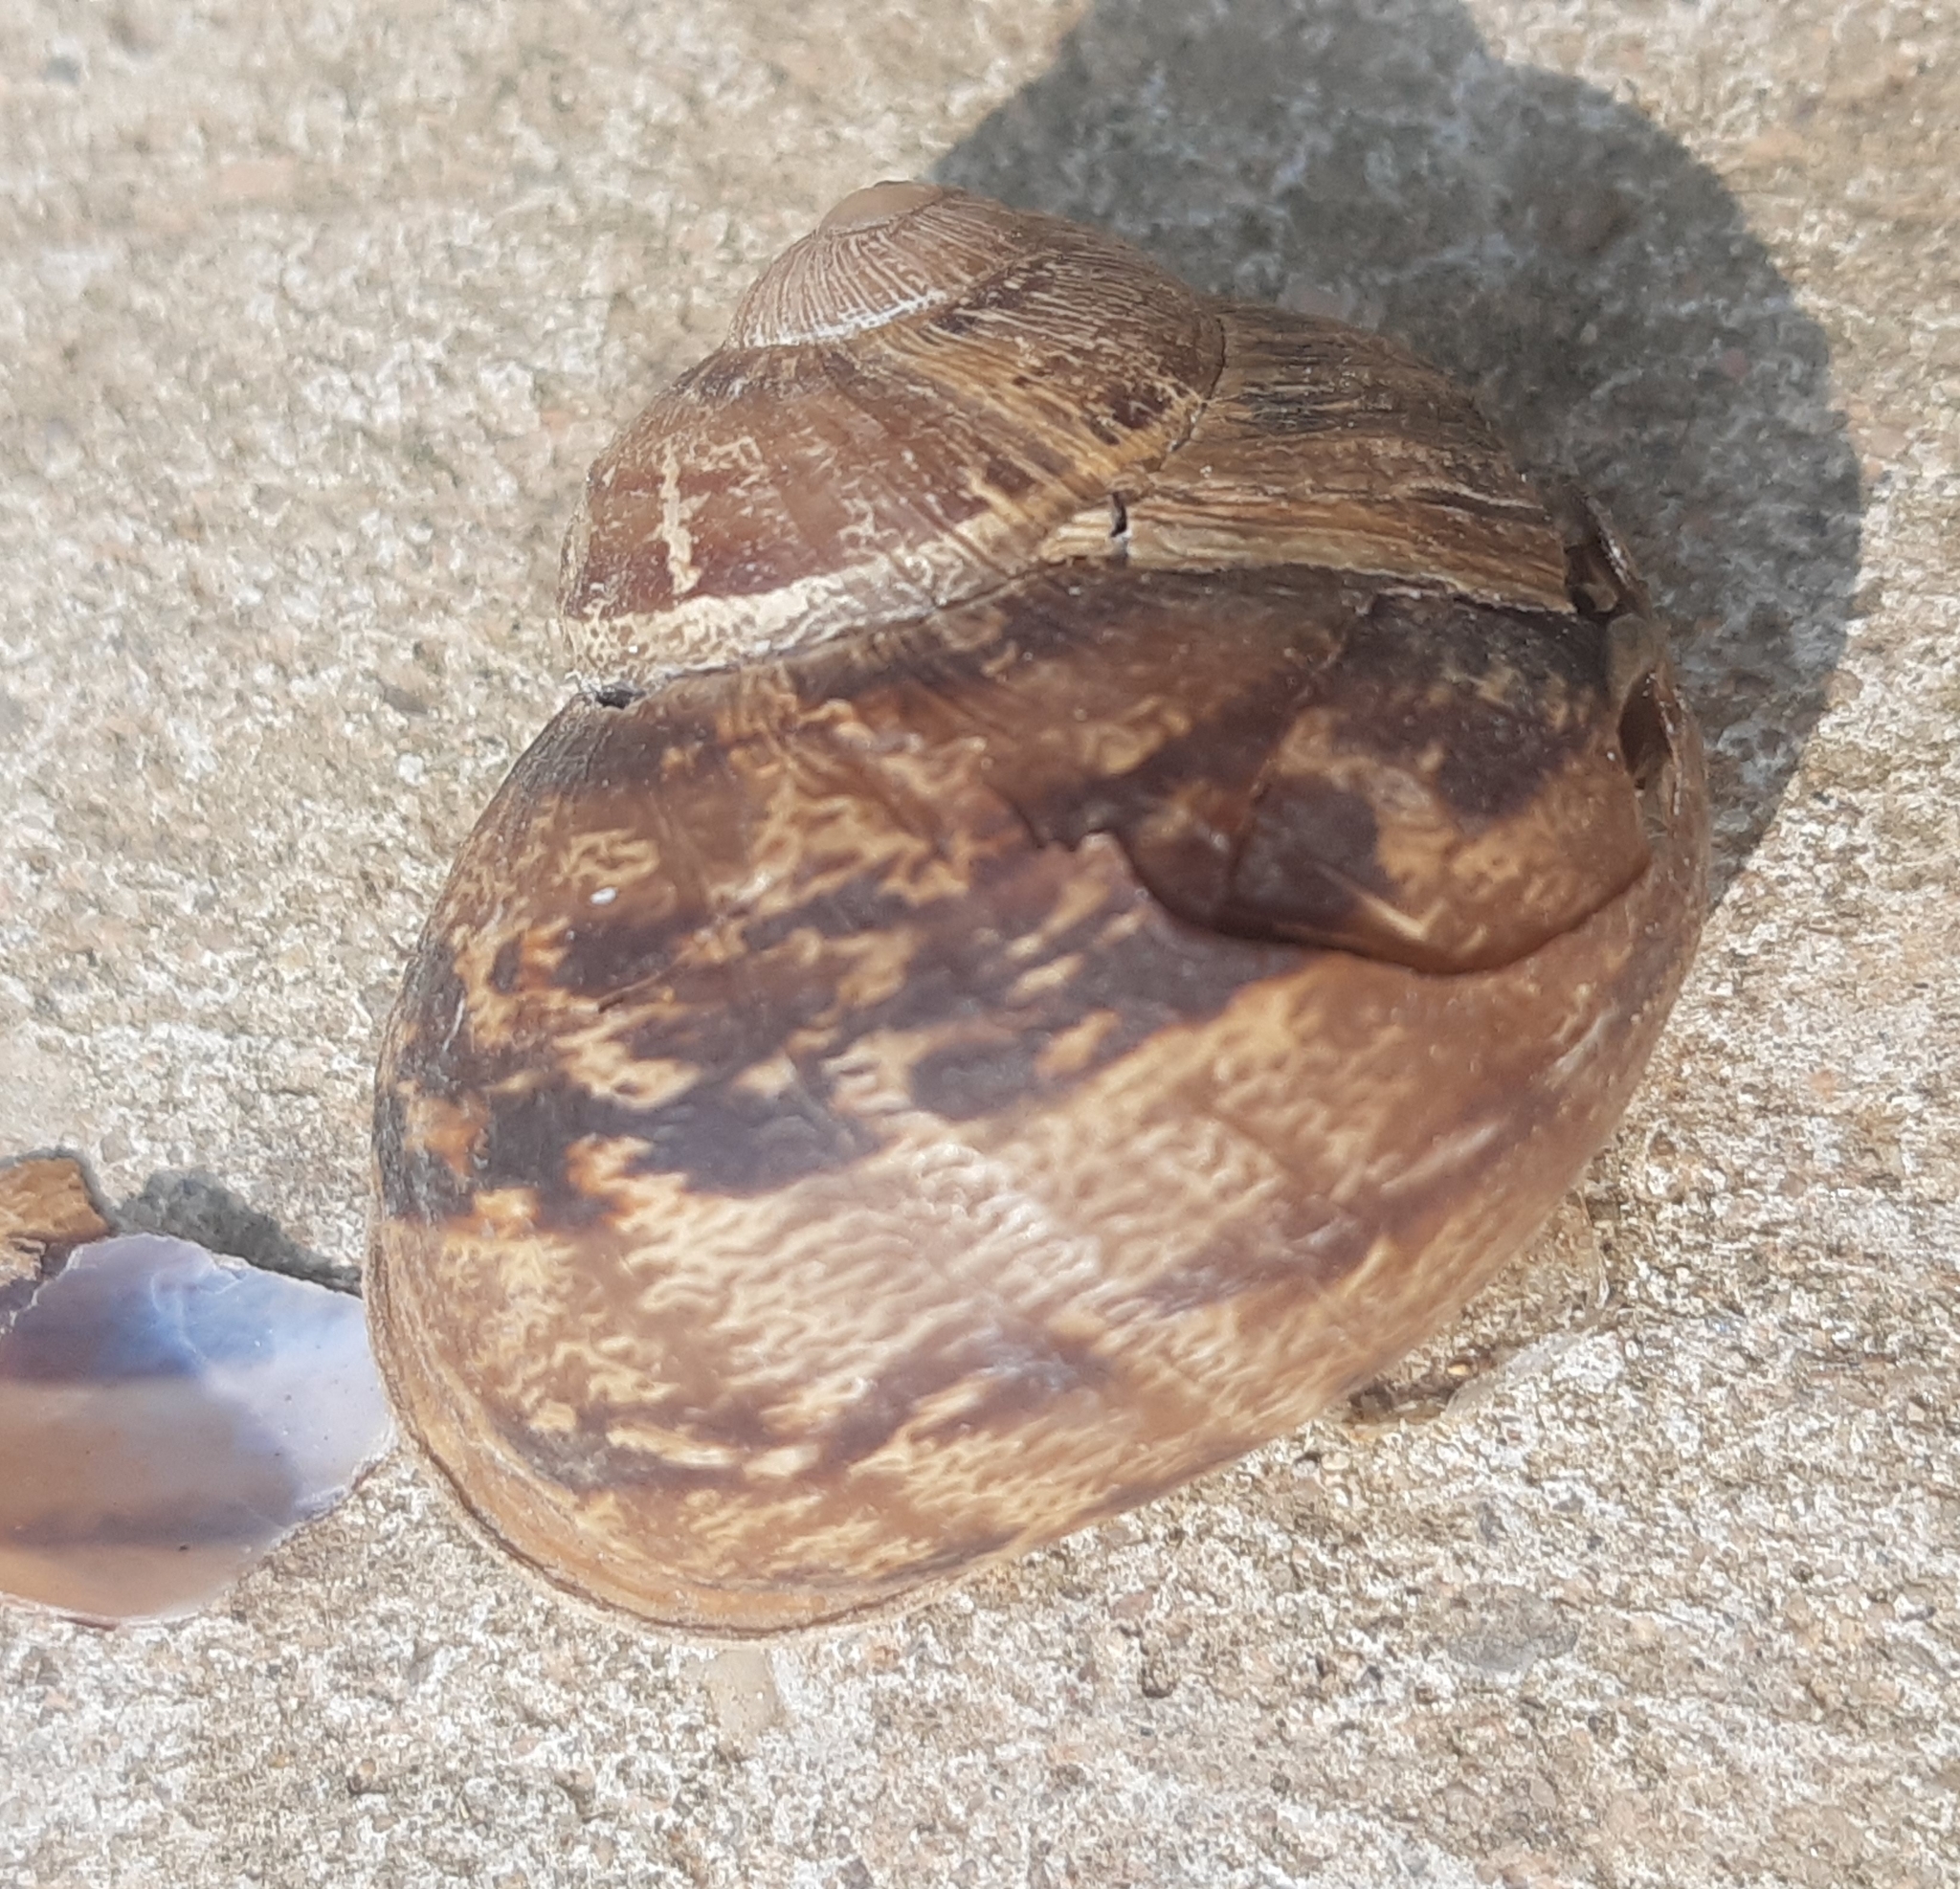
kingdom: Animalia
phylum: Mollusca
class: Gastropoda
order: Stylommatophora
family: Helicidae
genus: Cornu
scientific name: Cornu aspersum
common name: Brown garden snail
